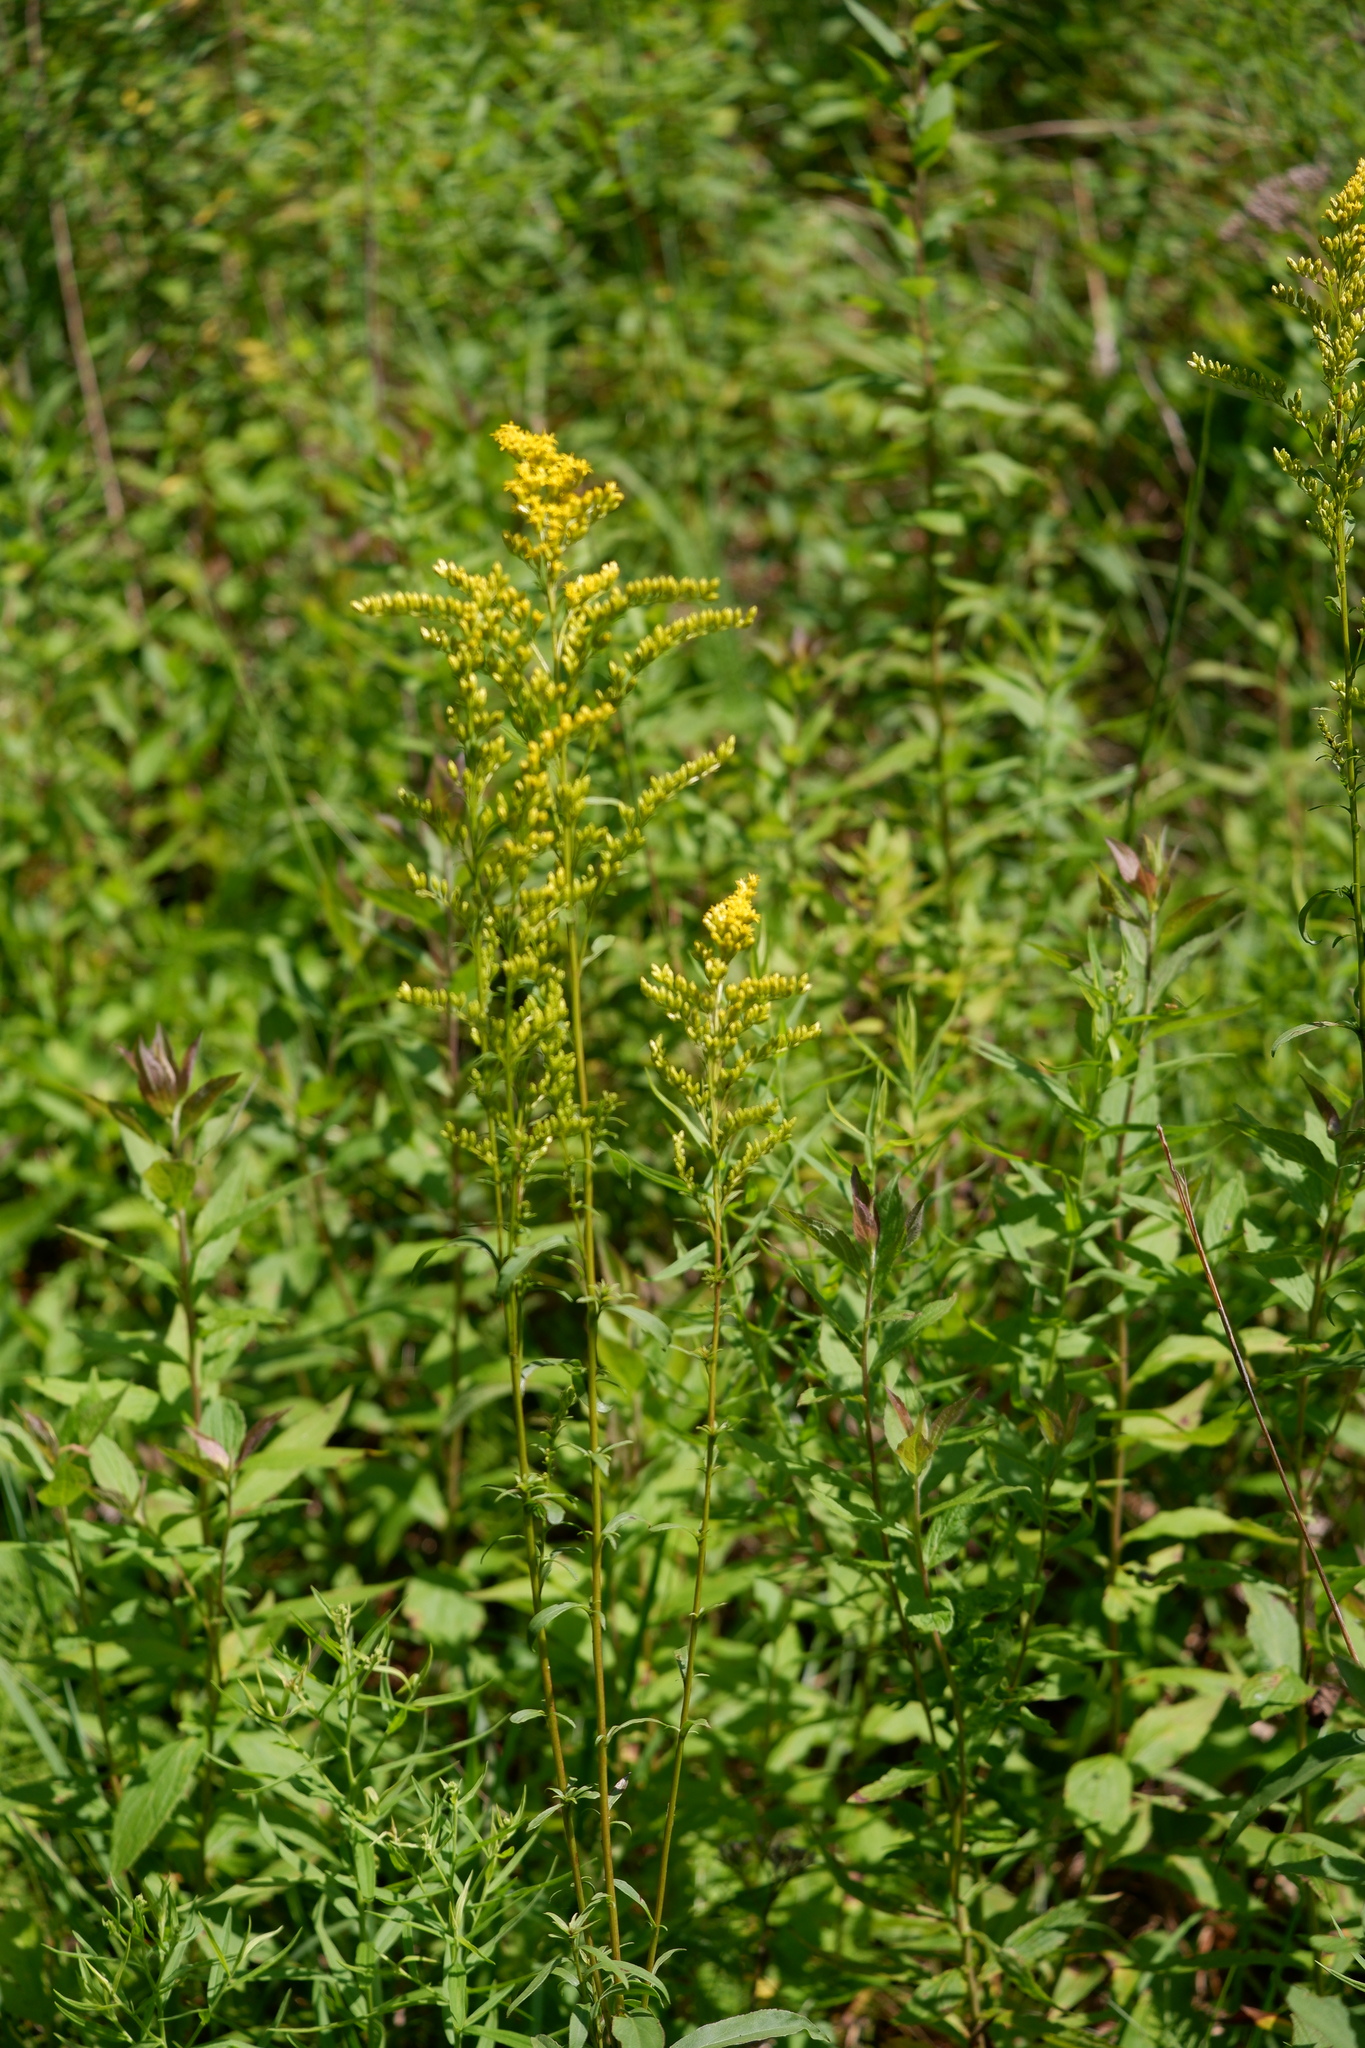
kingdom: Plantae
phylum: Tracheophyta
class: Magnoliopsida
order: Asterales
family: Asteraceae
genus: Solidago
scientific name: Solidago juncea
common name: Early goldenrod
